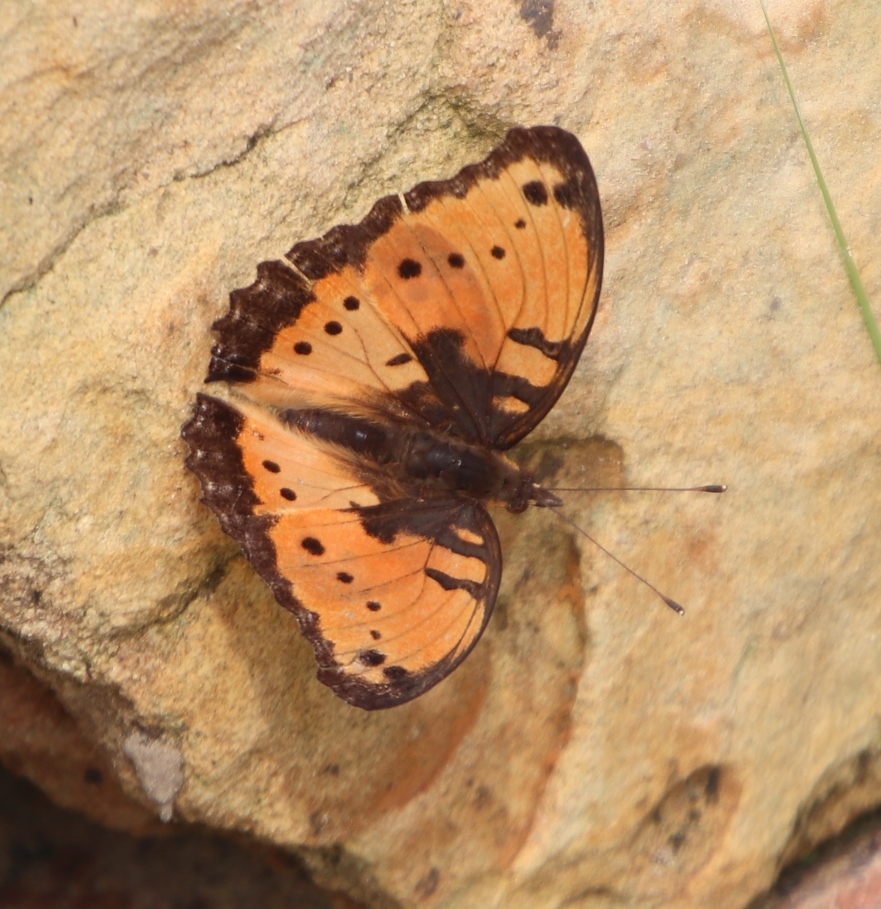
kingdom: Animalia
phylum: Arthropoda
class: Insecta
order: Lepidoptera
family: Nymphalidae
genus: Precis
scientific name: Precis octavia
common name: Gaudy commodore
